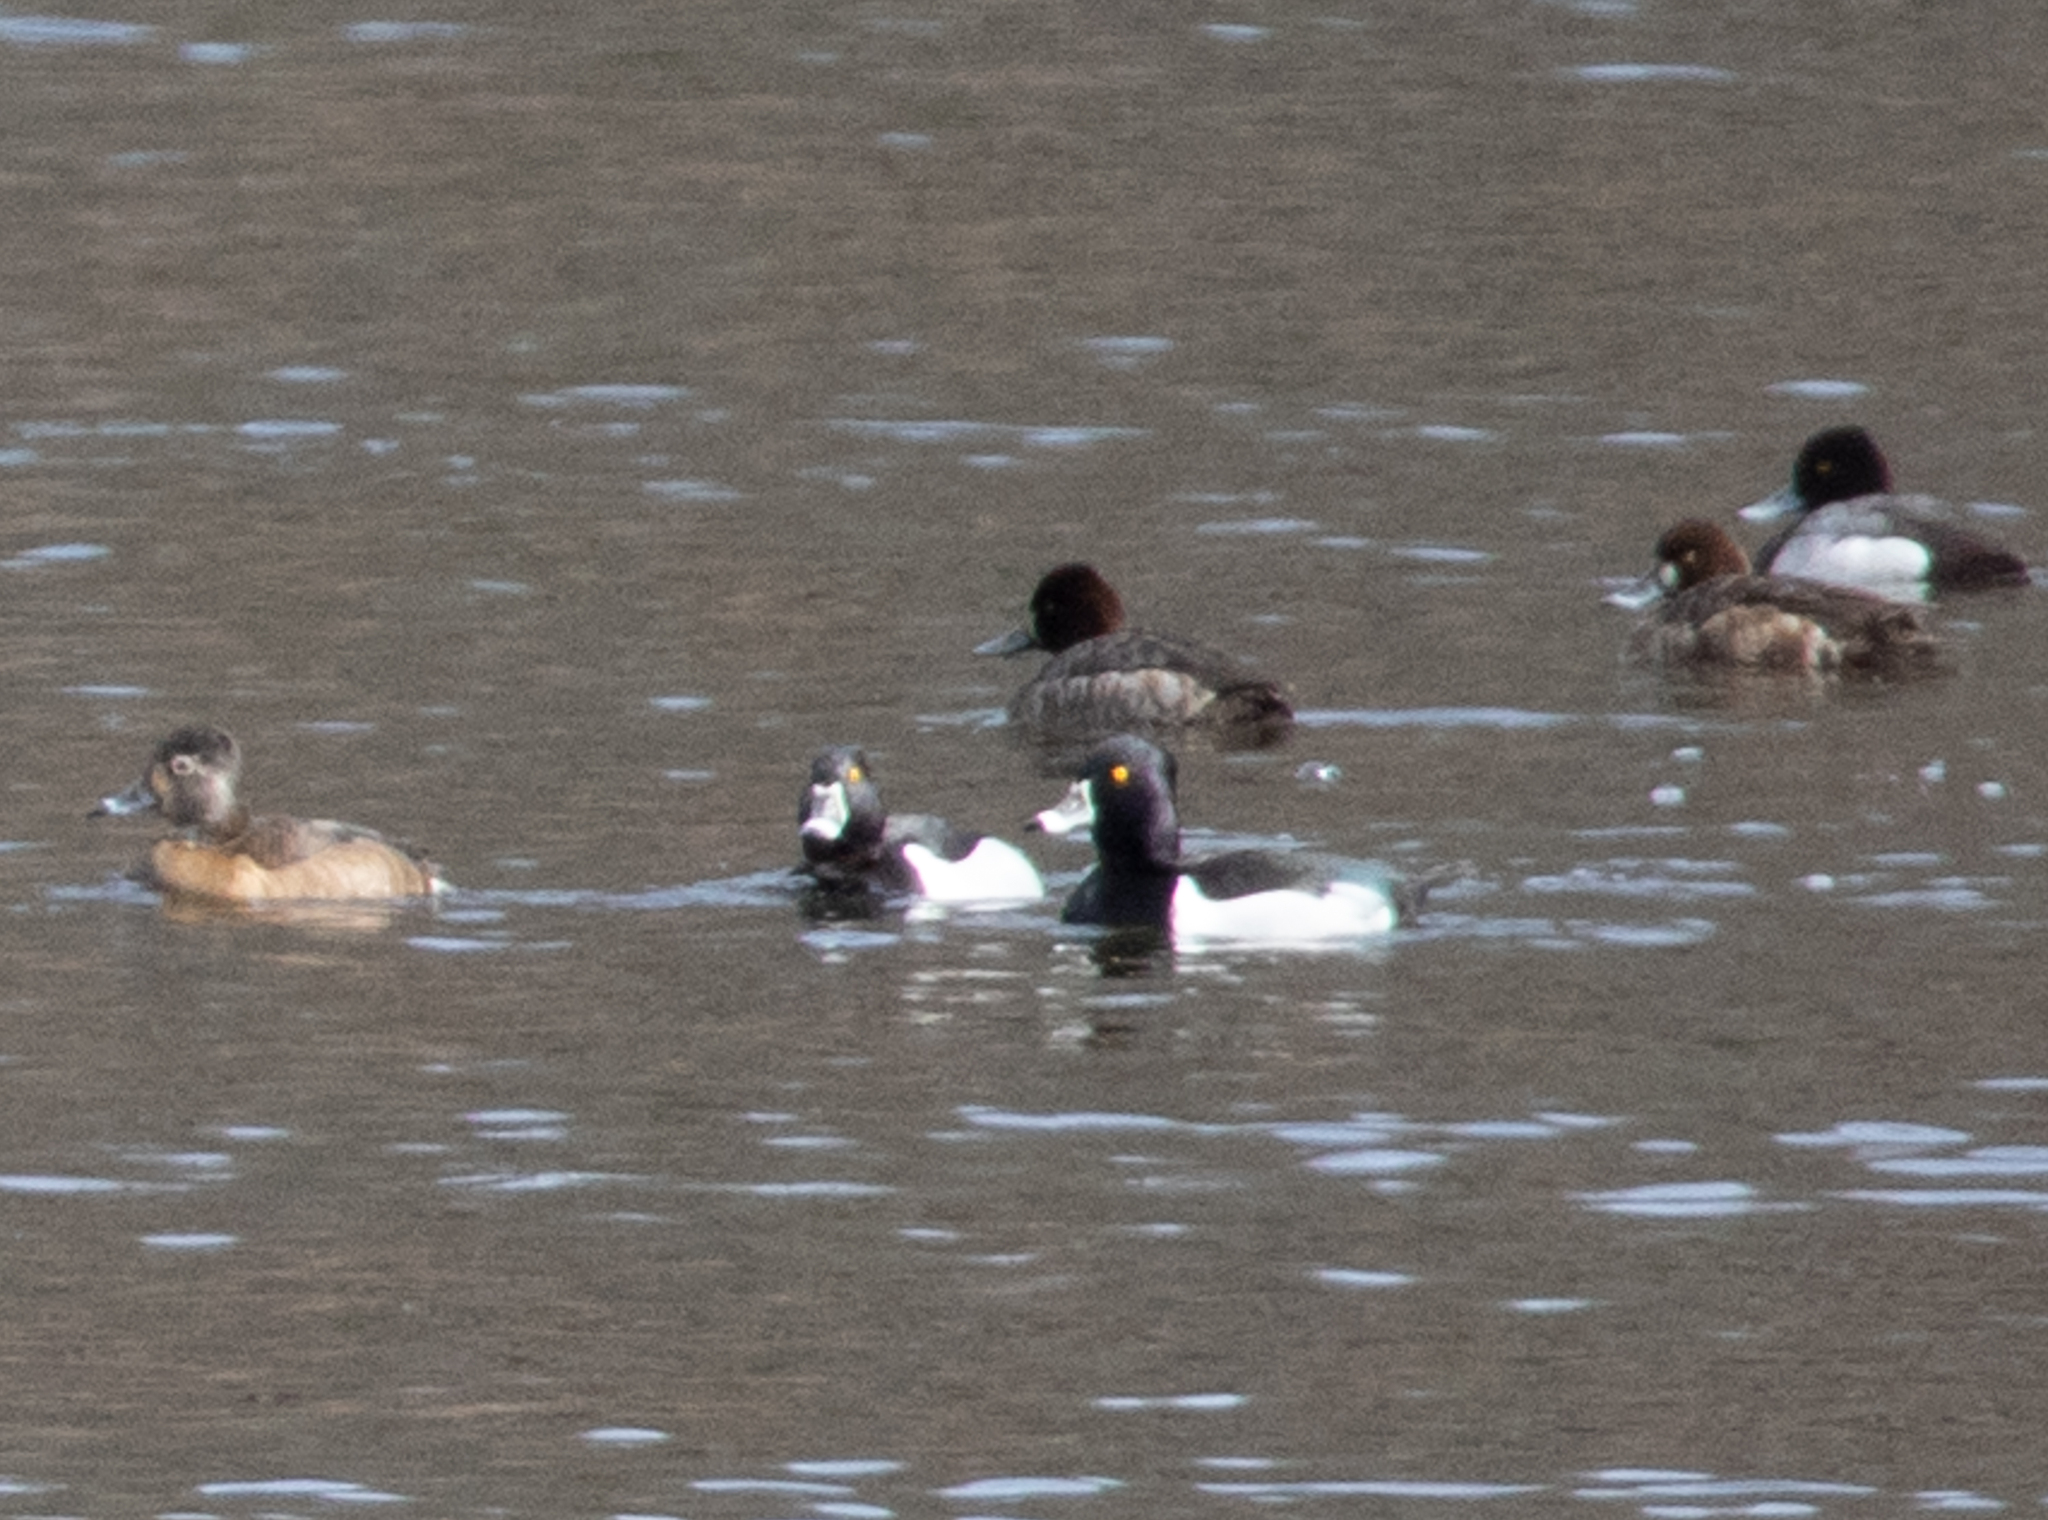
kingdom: Animalia
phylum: Chordata
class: Aves
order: Anseriformes
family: Anatidae
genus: Aythya
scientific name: Aythya collaris
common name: Ring-necked duck
